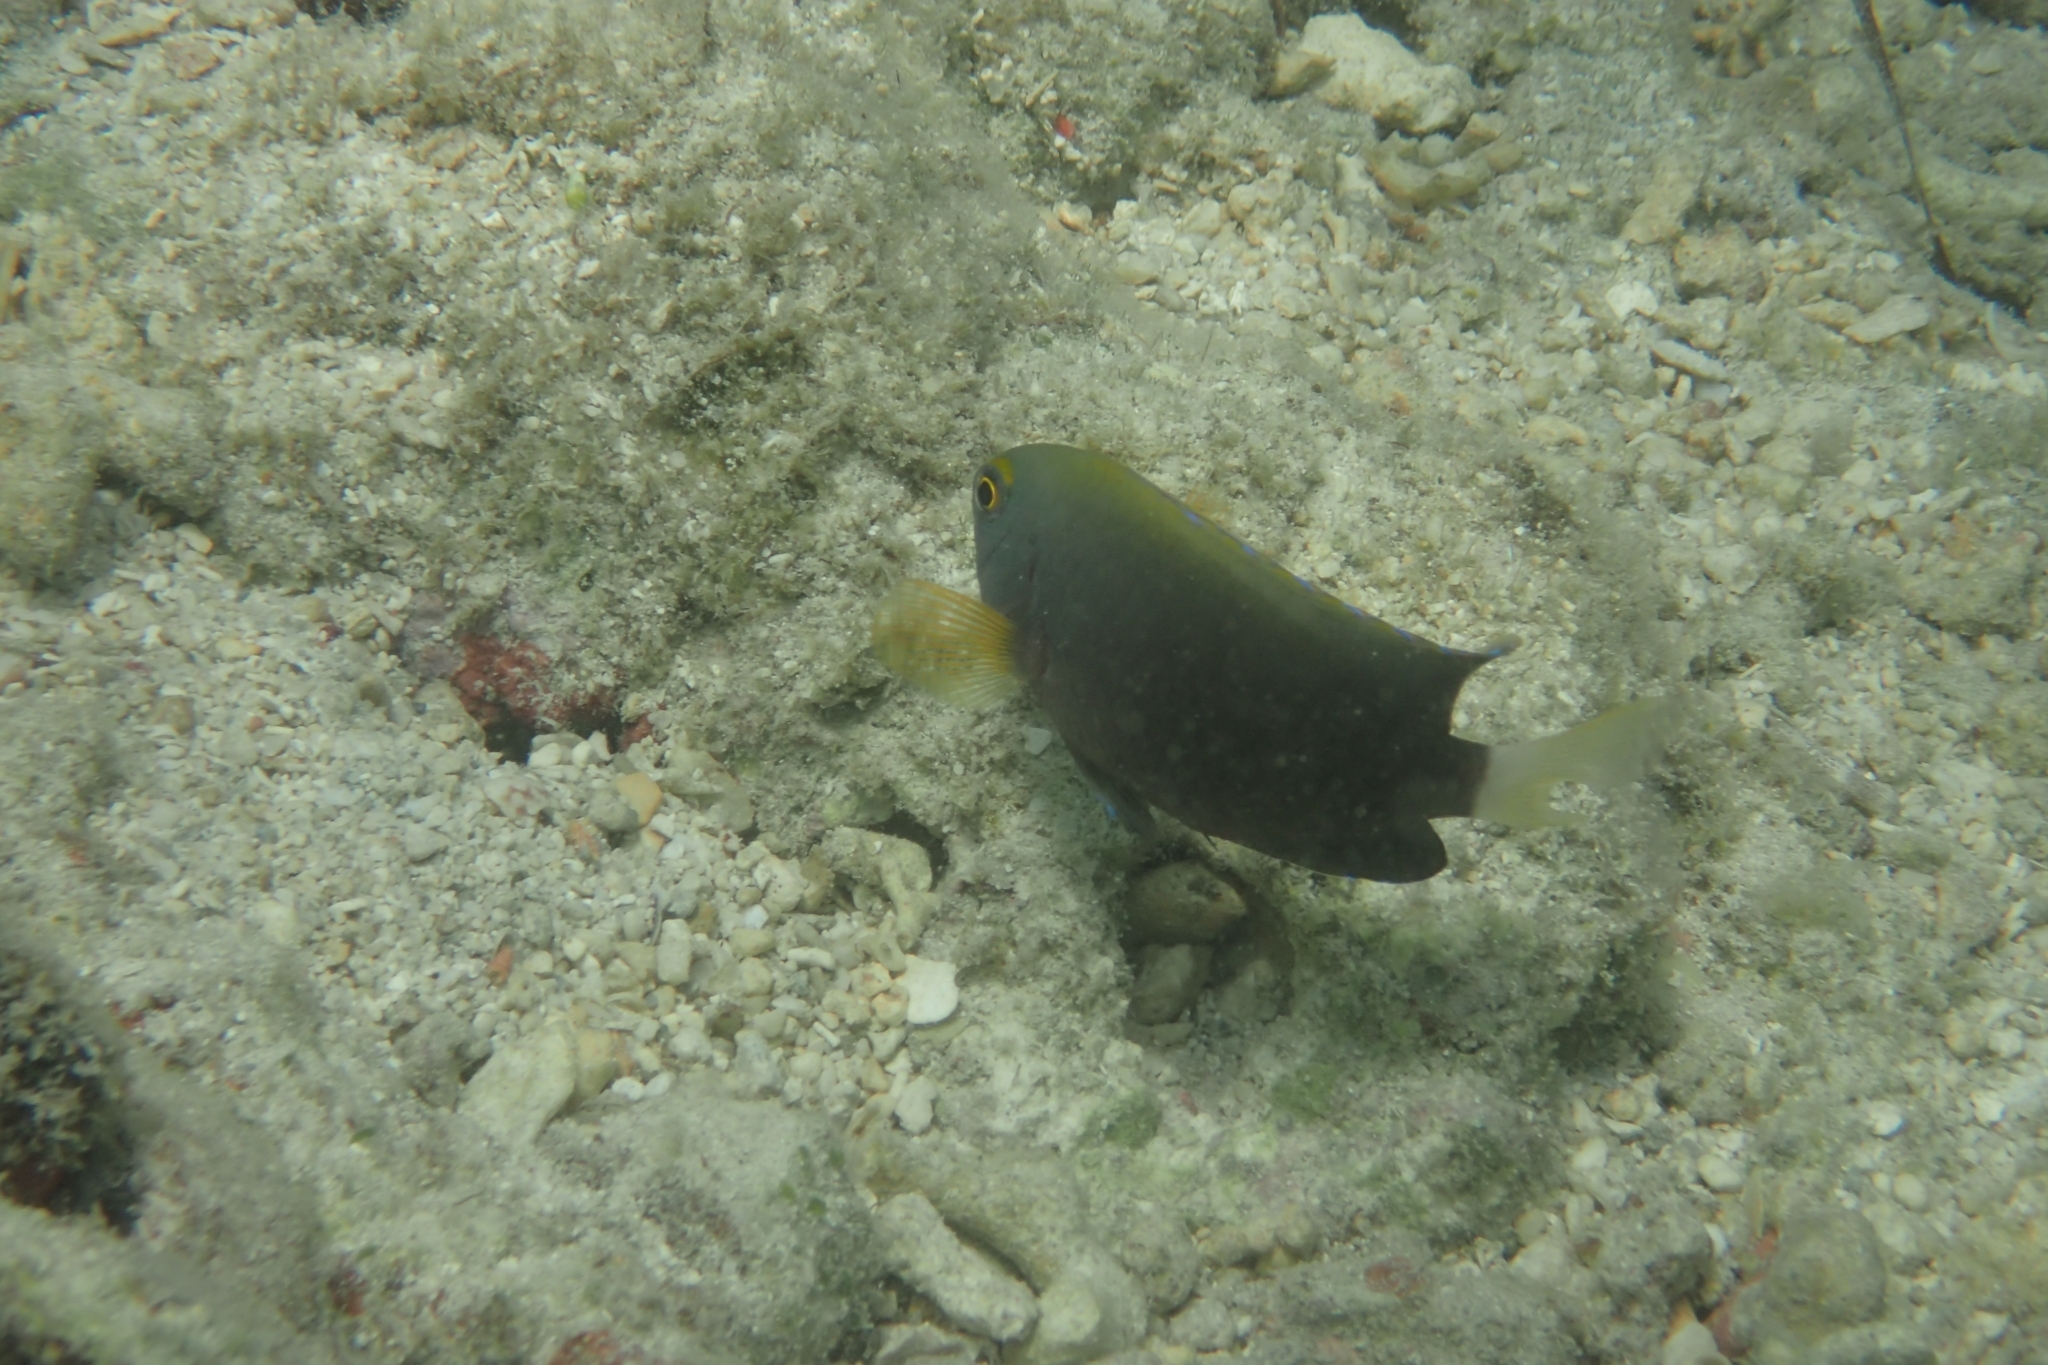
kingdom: Animalia
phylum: Chordata
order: Perciformes
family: Pomacentridae
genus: Pomacentrus
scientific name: Pomacentrus chrysurus
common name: White-tail damsel
